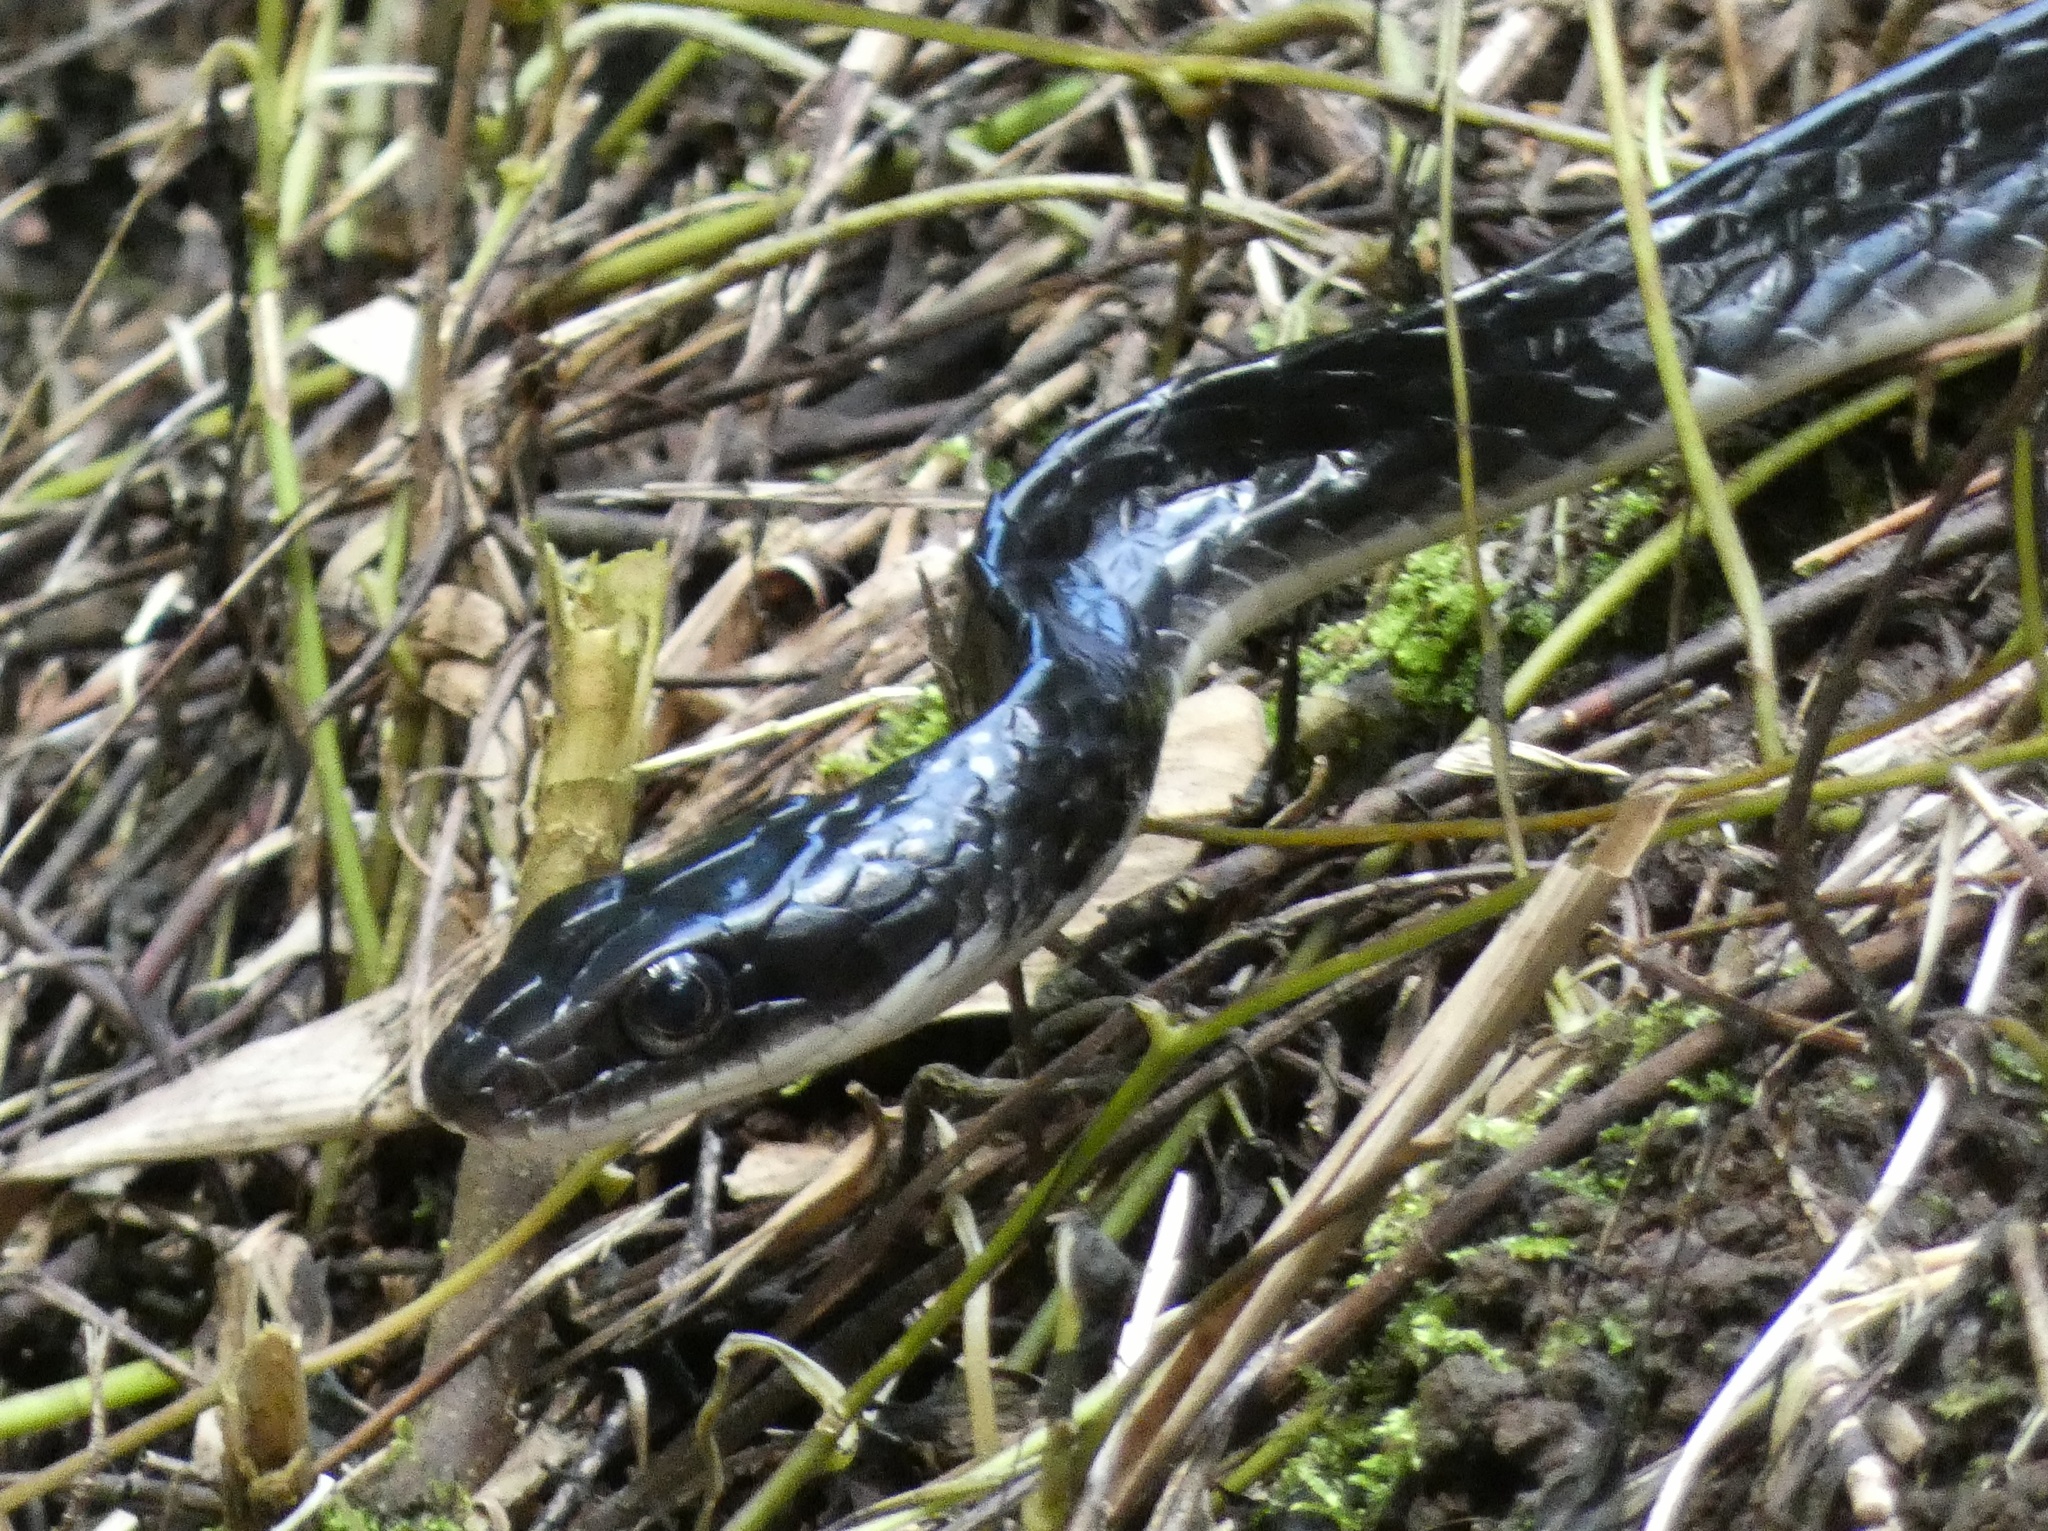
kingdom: Animalia
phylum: Chordata
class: Squamata
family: Colubridae
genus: Chironius
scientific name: Chironius grandisquamis
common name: Ecuador sipo
